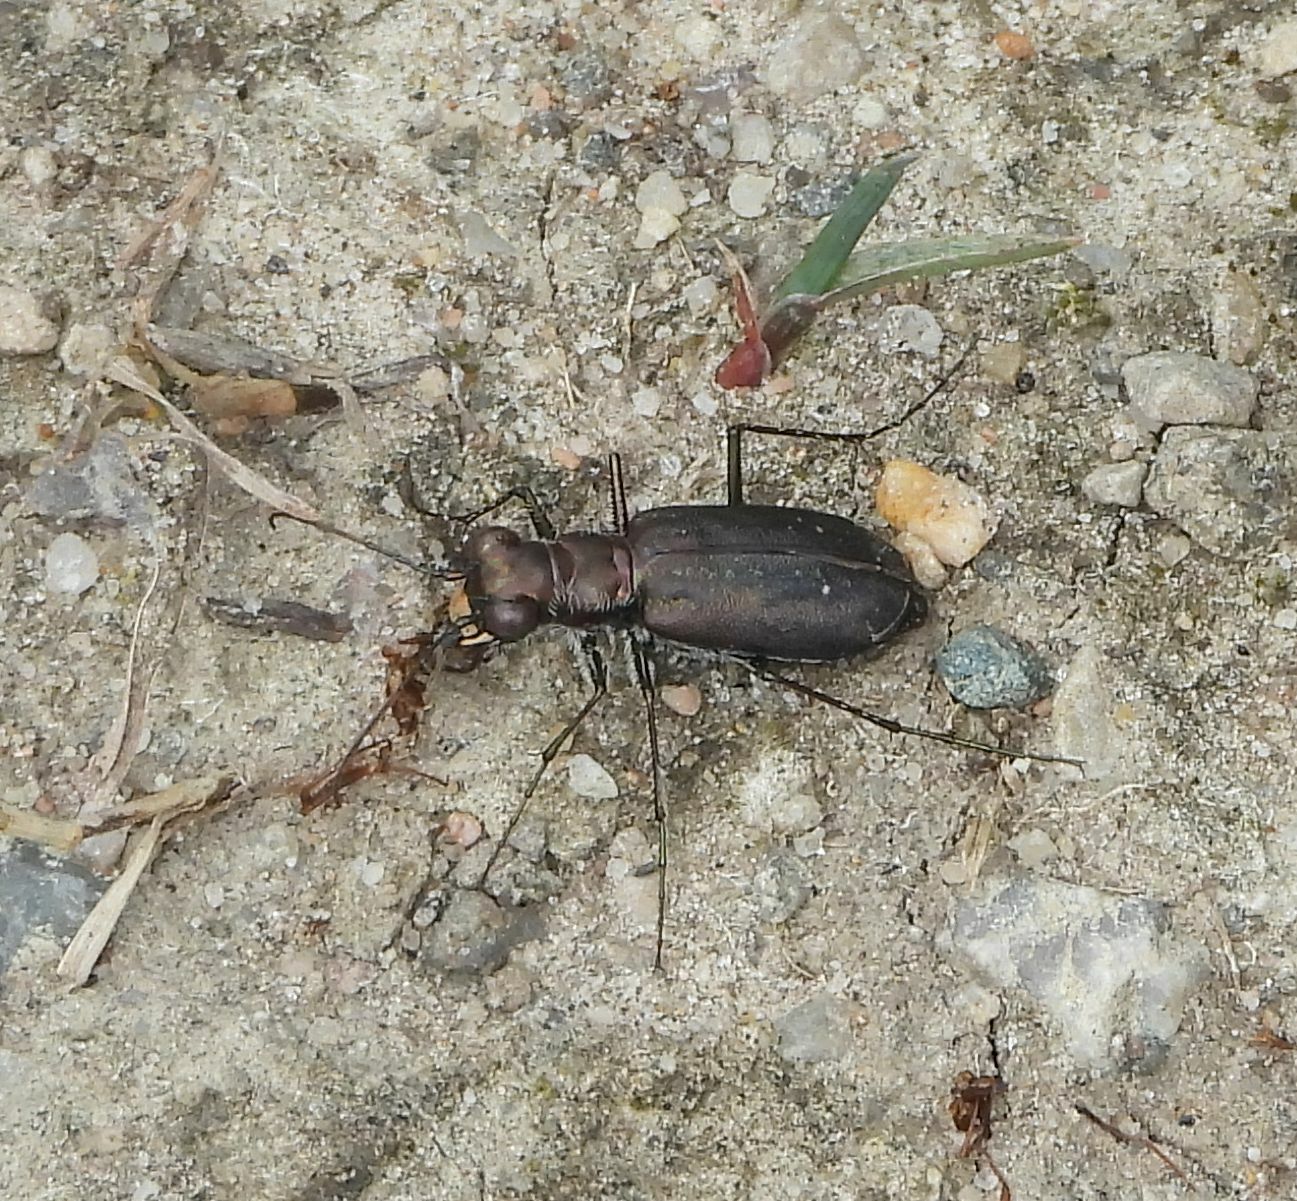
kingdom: Animalia
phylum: Arthropoda
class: Insecta
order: Coleoptera
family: Carabidae
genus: Cicindela
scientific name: Cicindela punctulata
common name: Punctured tiger beetle
